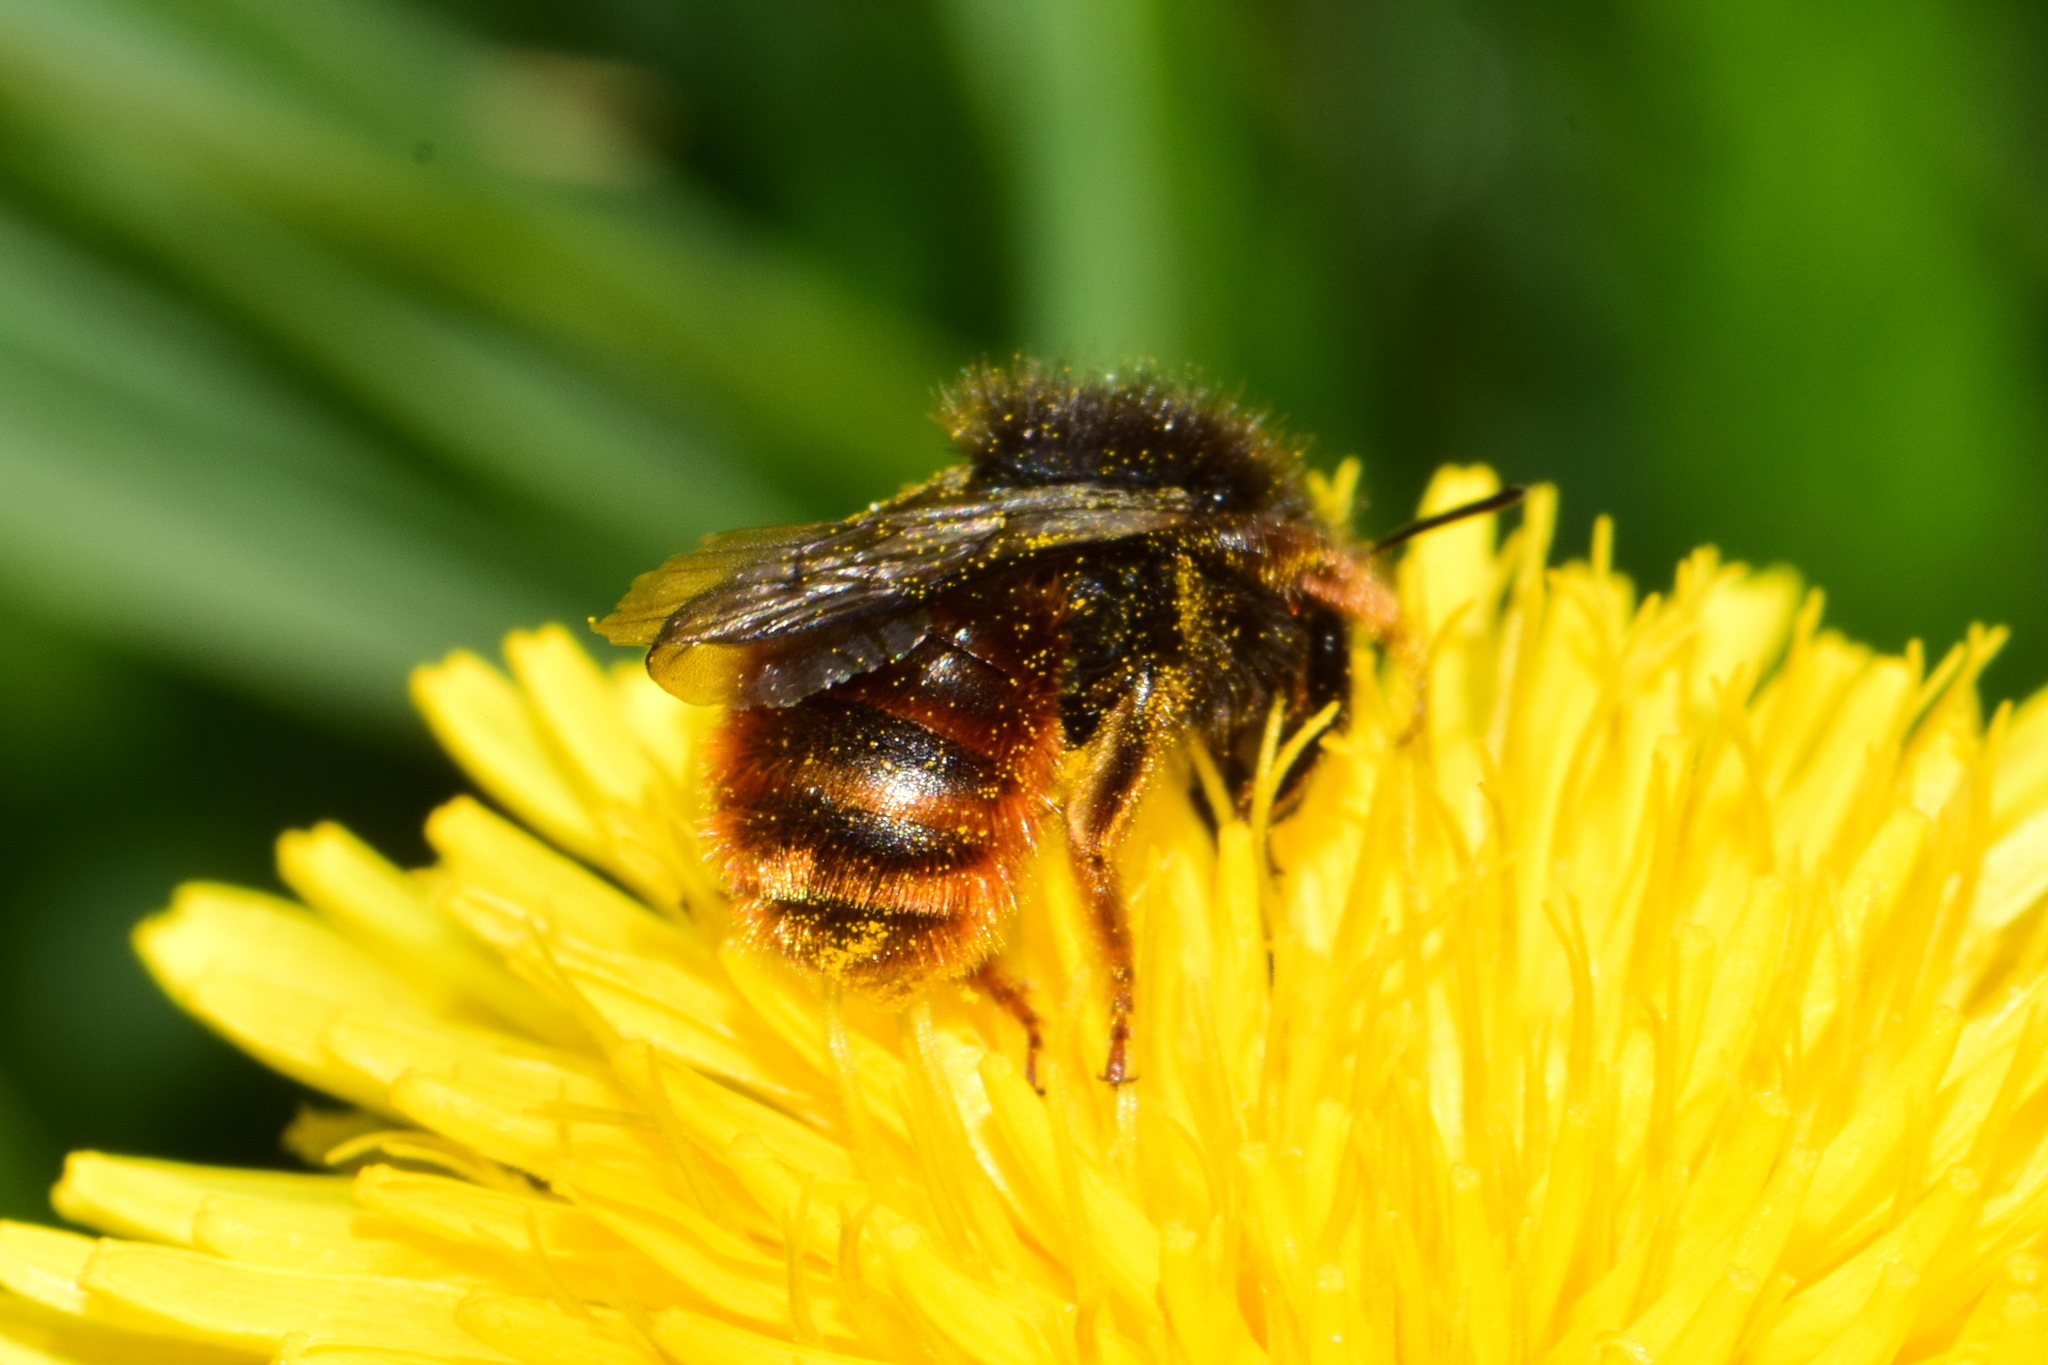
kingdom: Animalia
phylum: Arthropoda
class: Insecta
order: Hymenoptera
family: Megachilidae
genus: Osmia
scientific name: Osmia bicolor
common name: Red-tailed mason bee
